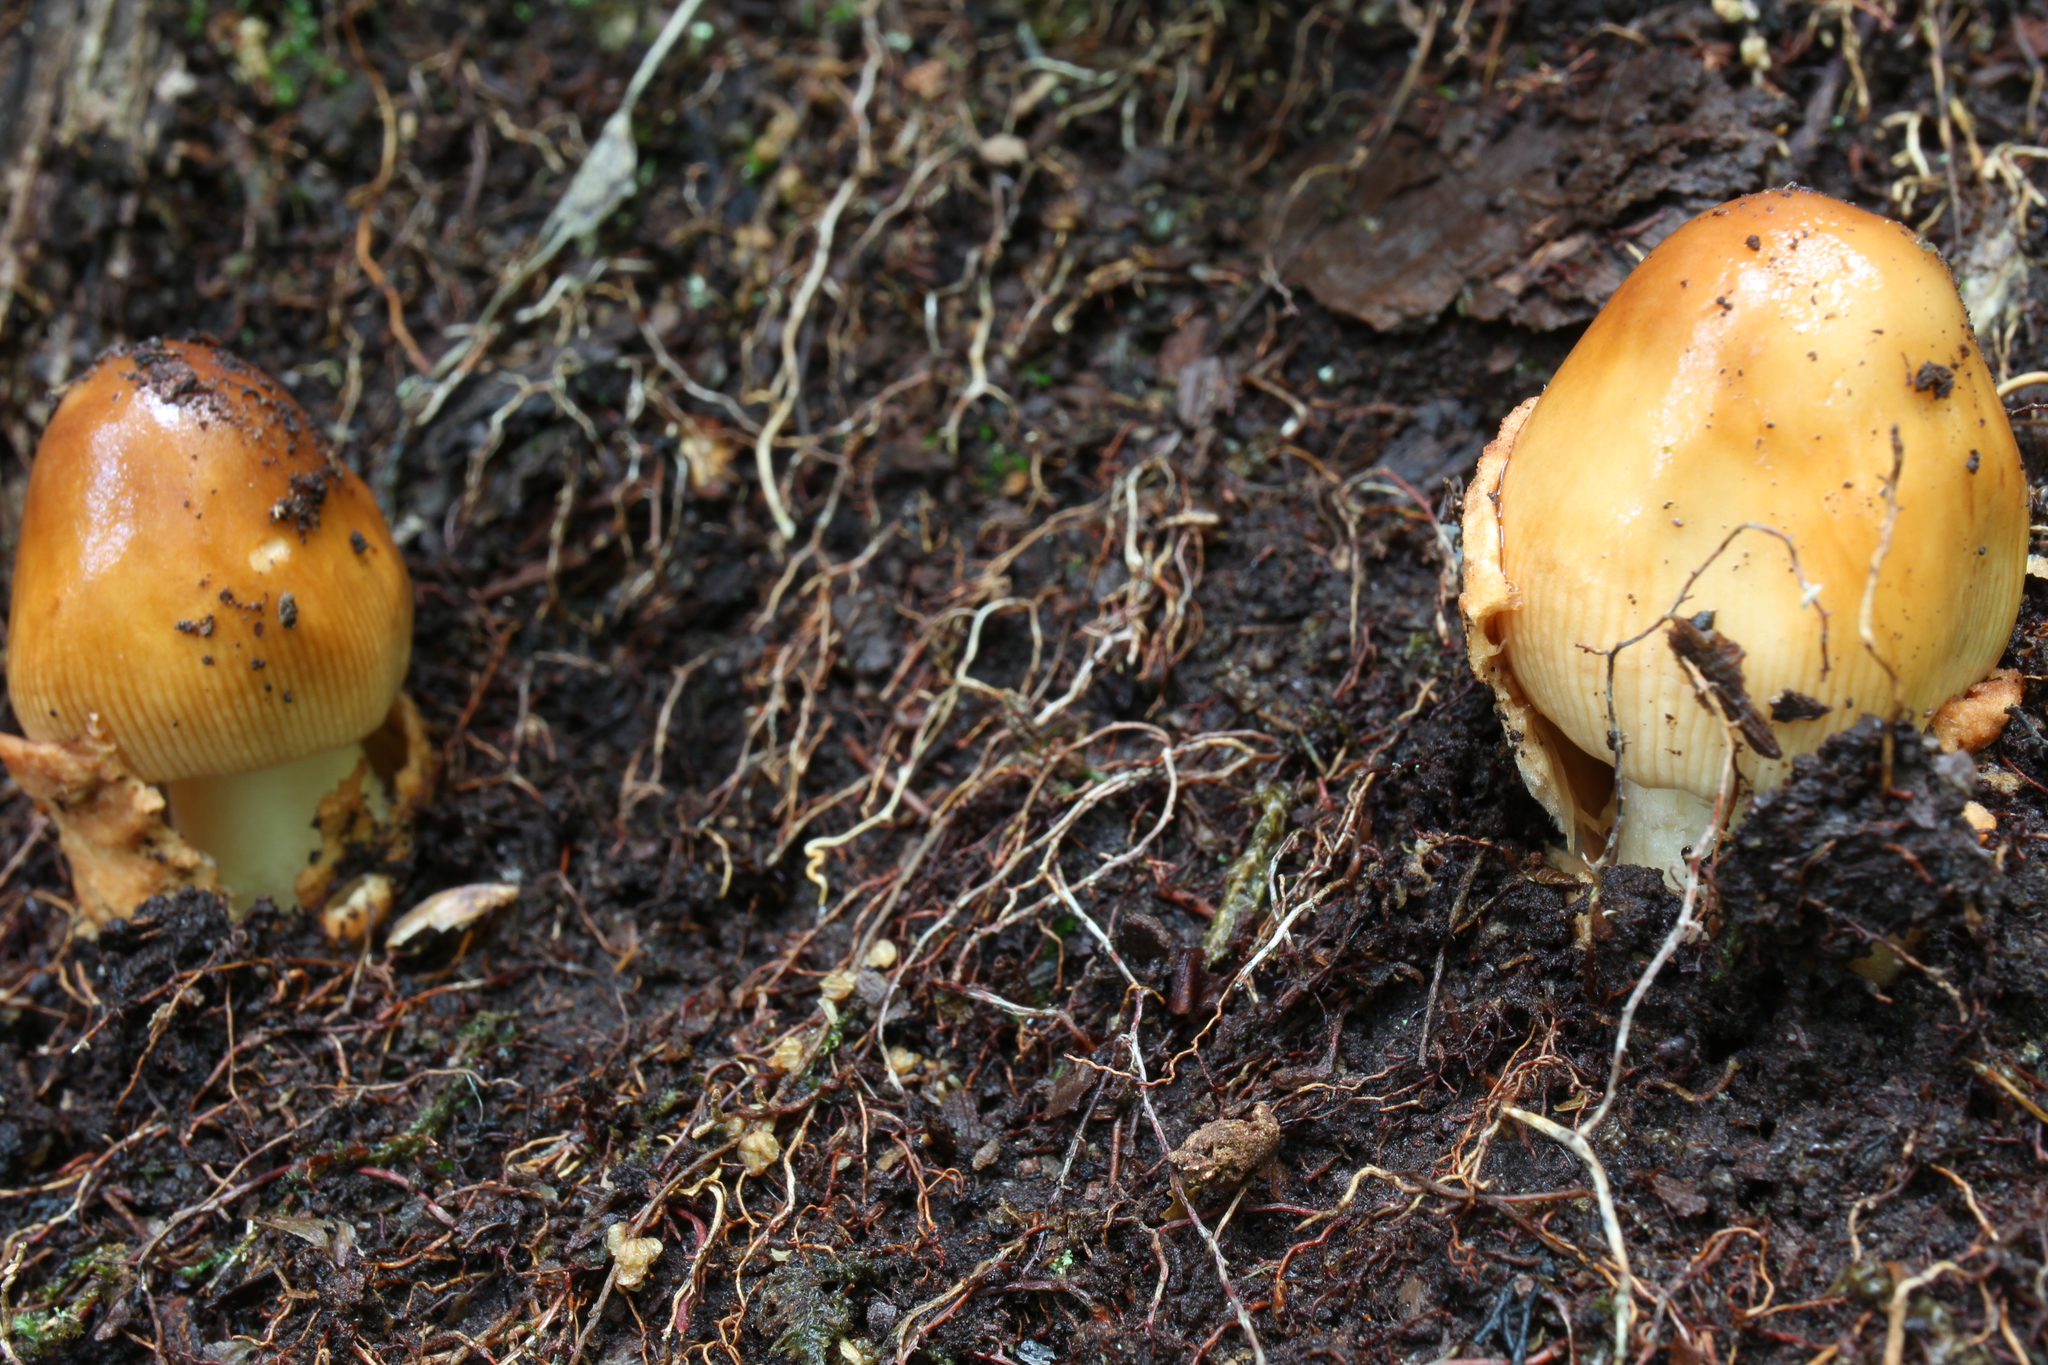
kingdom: Fungi
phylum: Basidiomycota
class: Agaricomycetes
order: Agaricales
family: Amanitaceae
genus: Amanita
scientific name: Amanita fulva
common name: Tawny grisette
